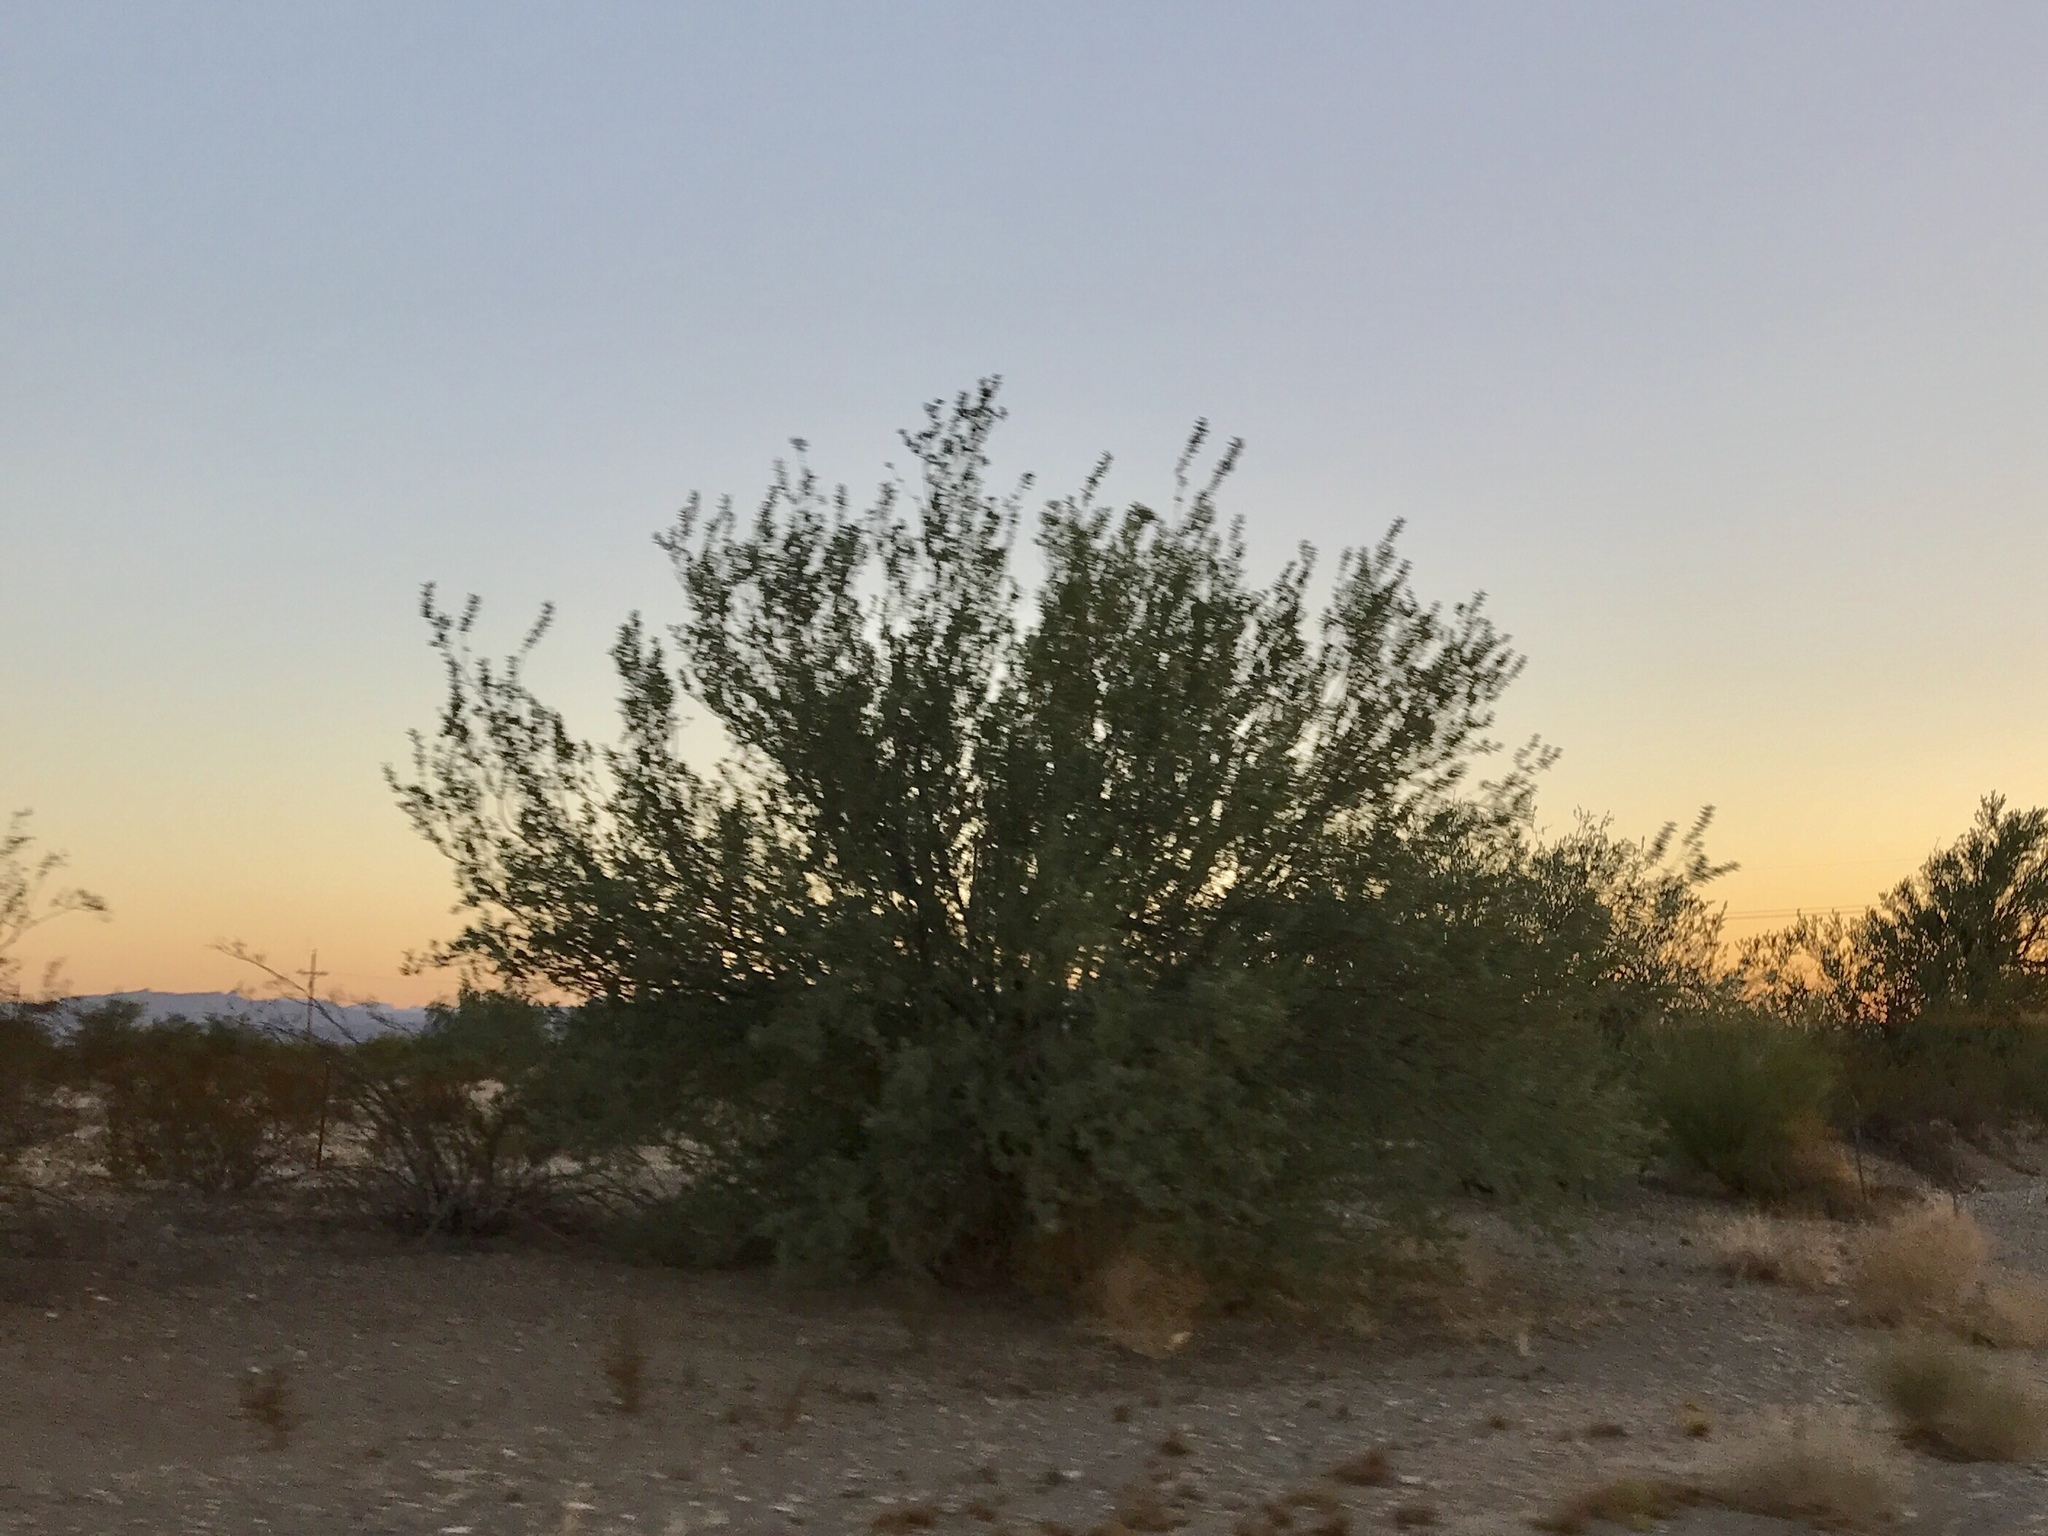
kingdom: Plantae
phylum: Tracheophyta
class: Magnoliopsida
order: Fabales
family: Fabaceae
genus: Olneya
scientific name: Olneya tesota
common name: Desert ironwood
